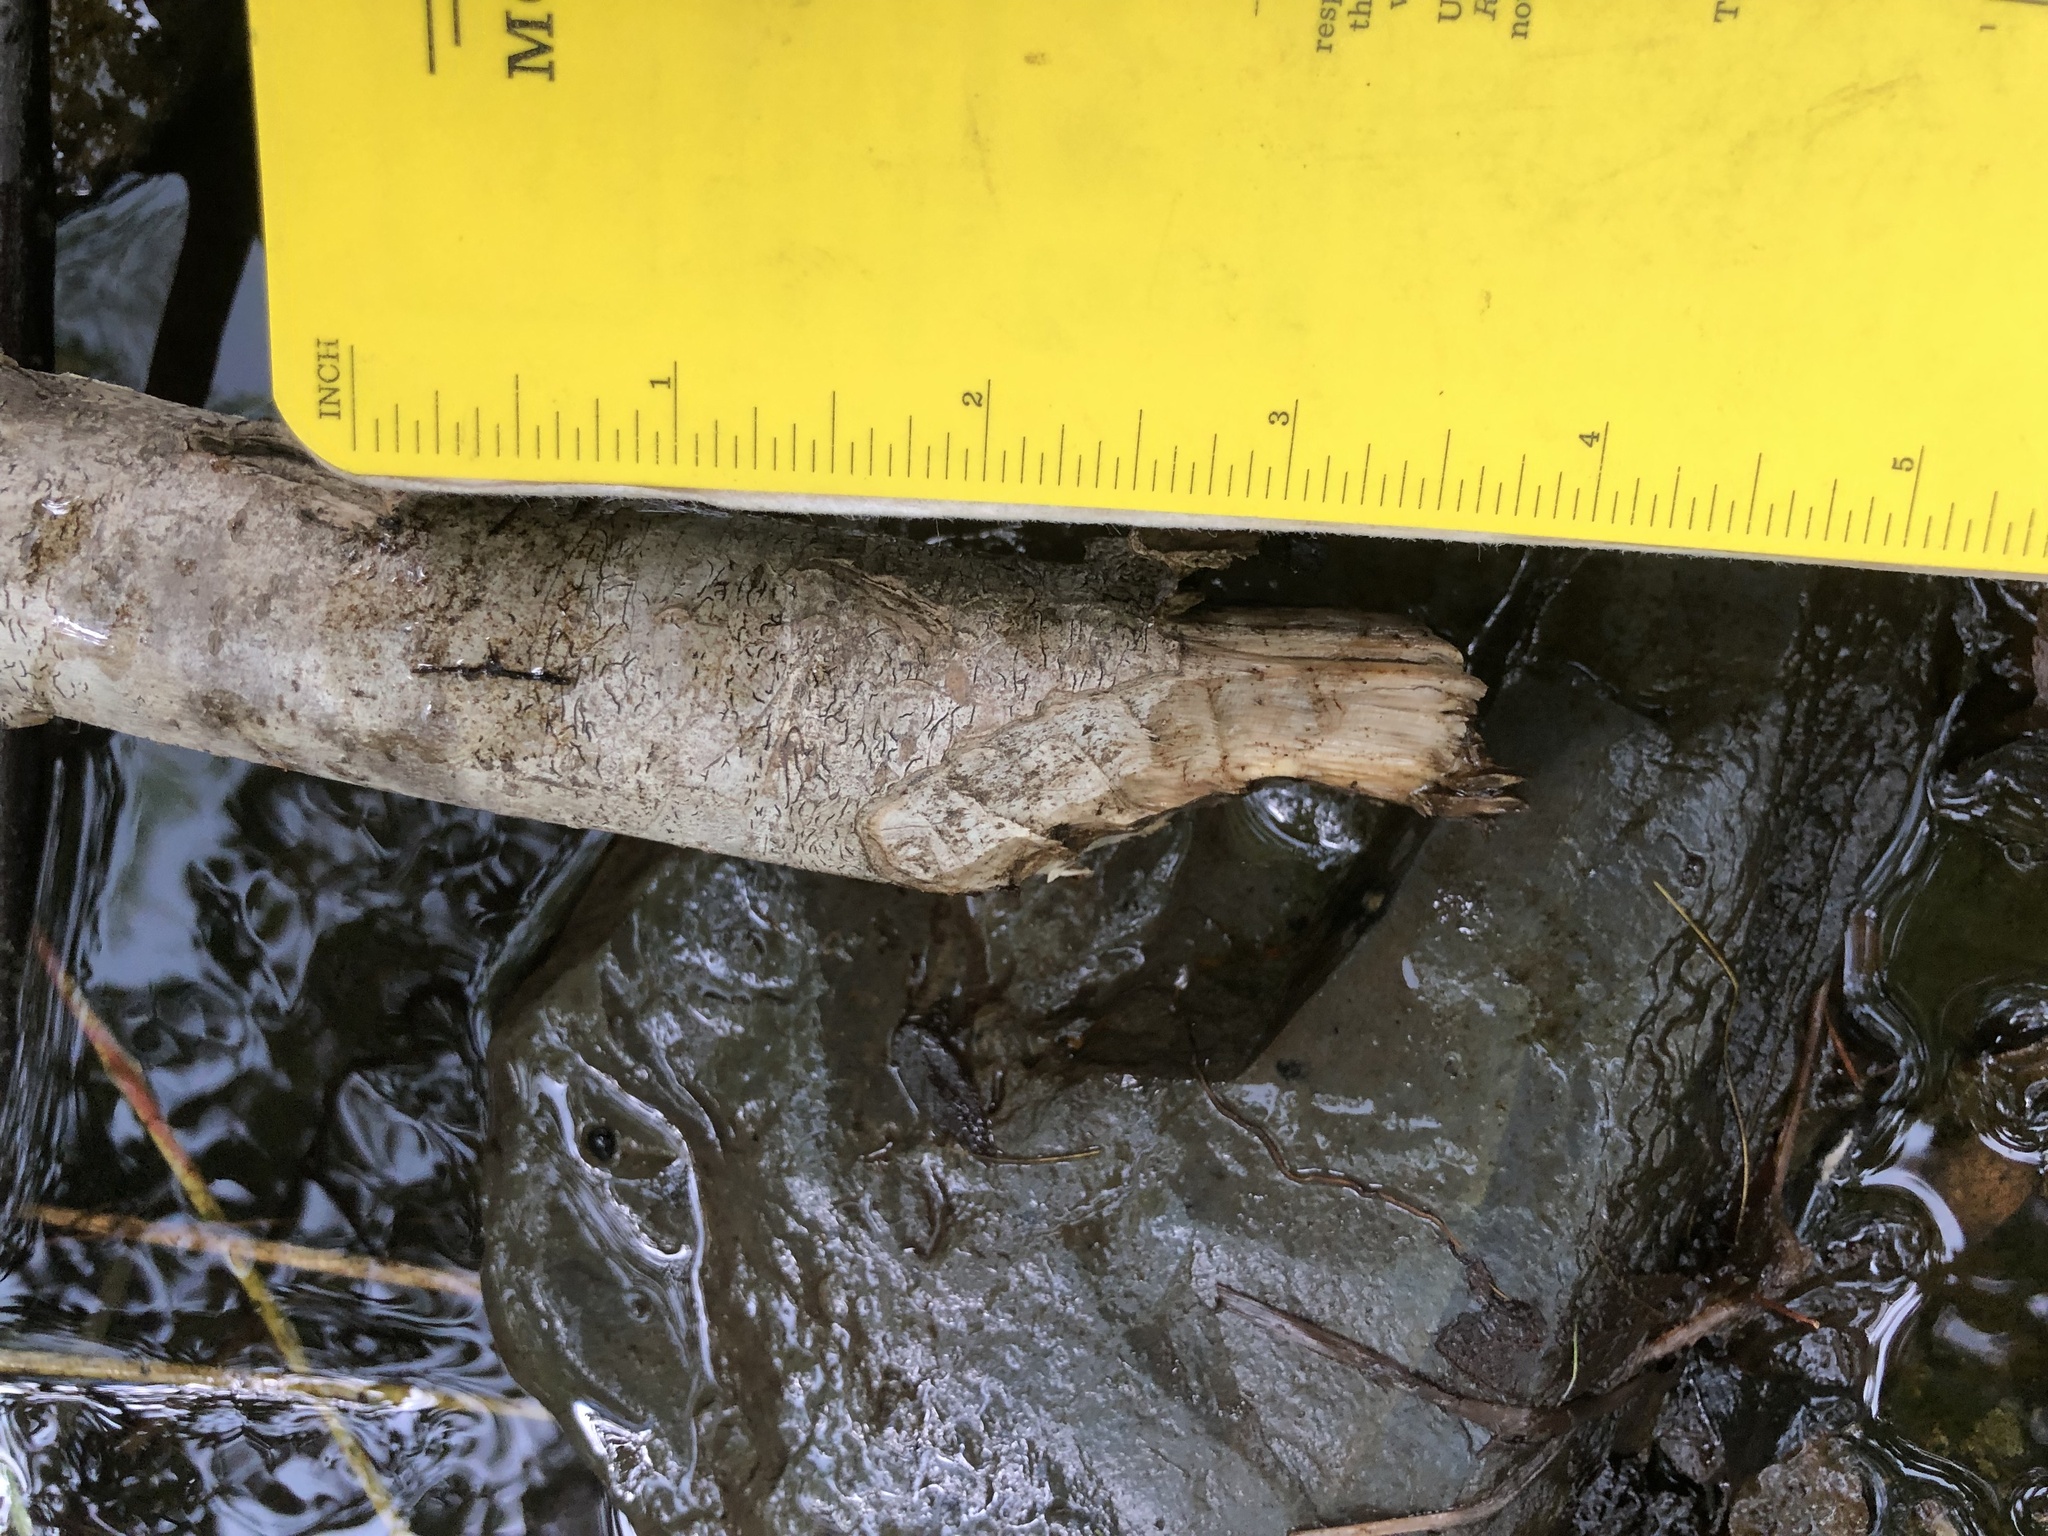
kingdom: Animalia
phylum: Chordata
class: Mammalia
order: Rodentia
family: Castoridae
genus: Castor
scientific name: Castor canadensis
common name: American beaver
